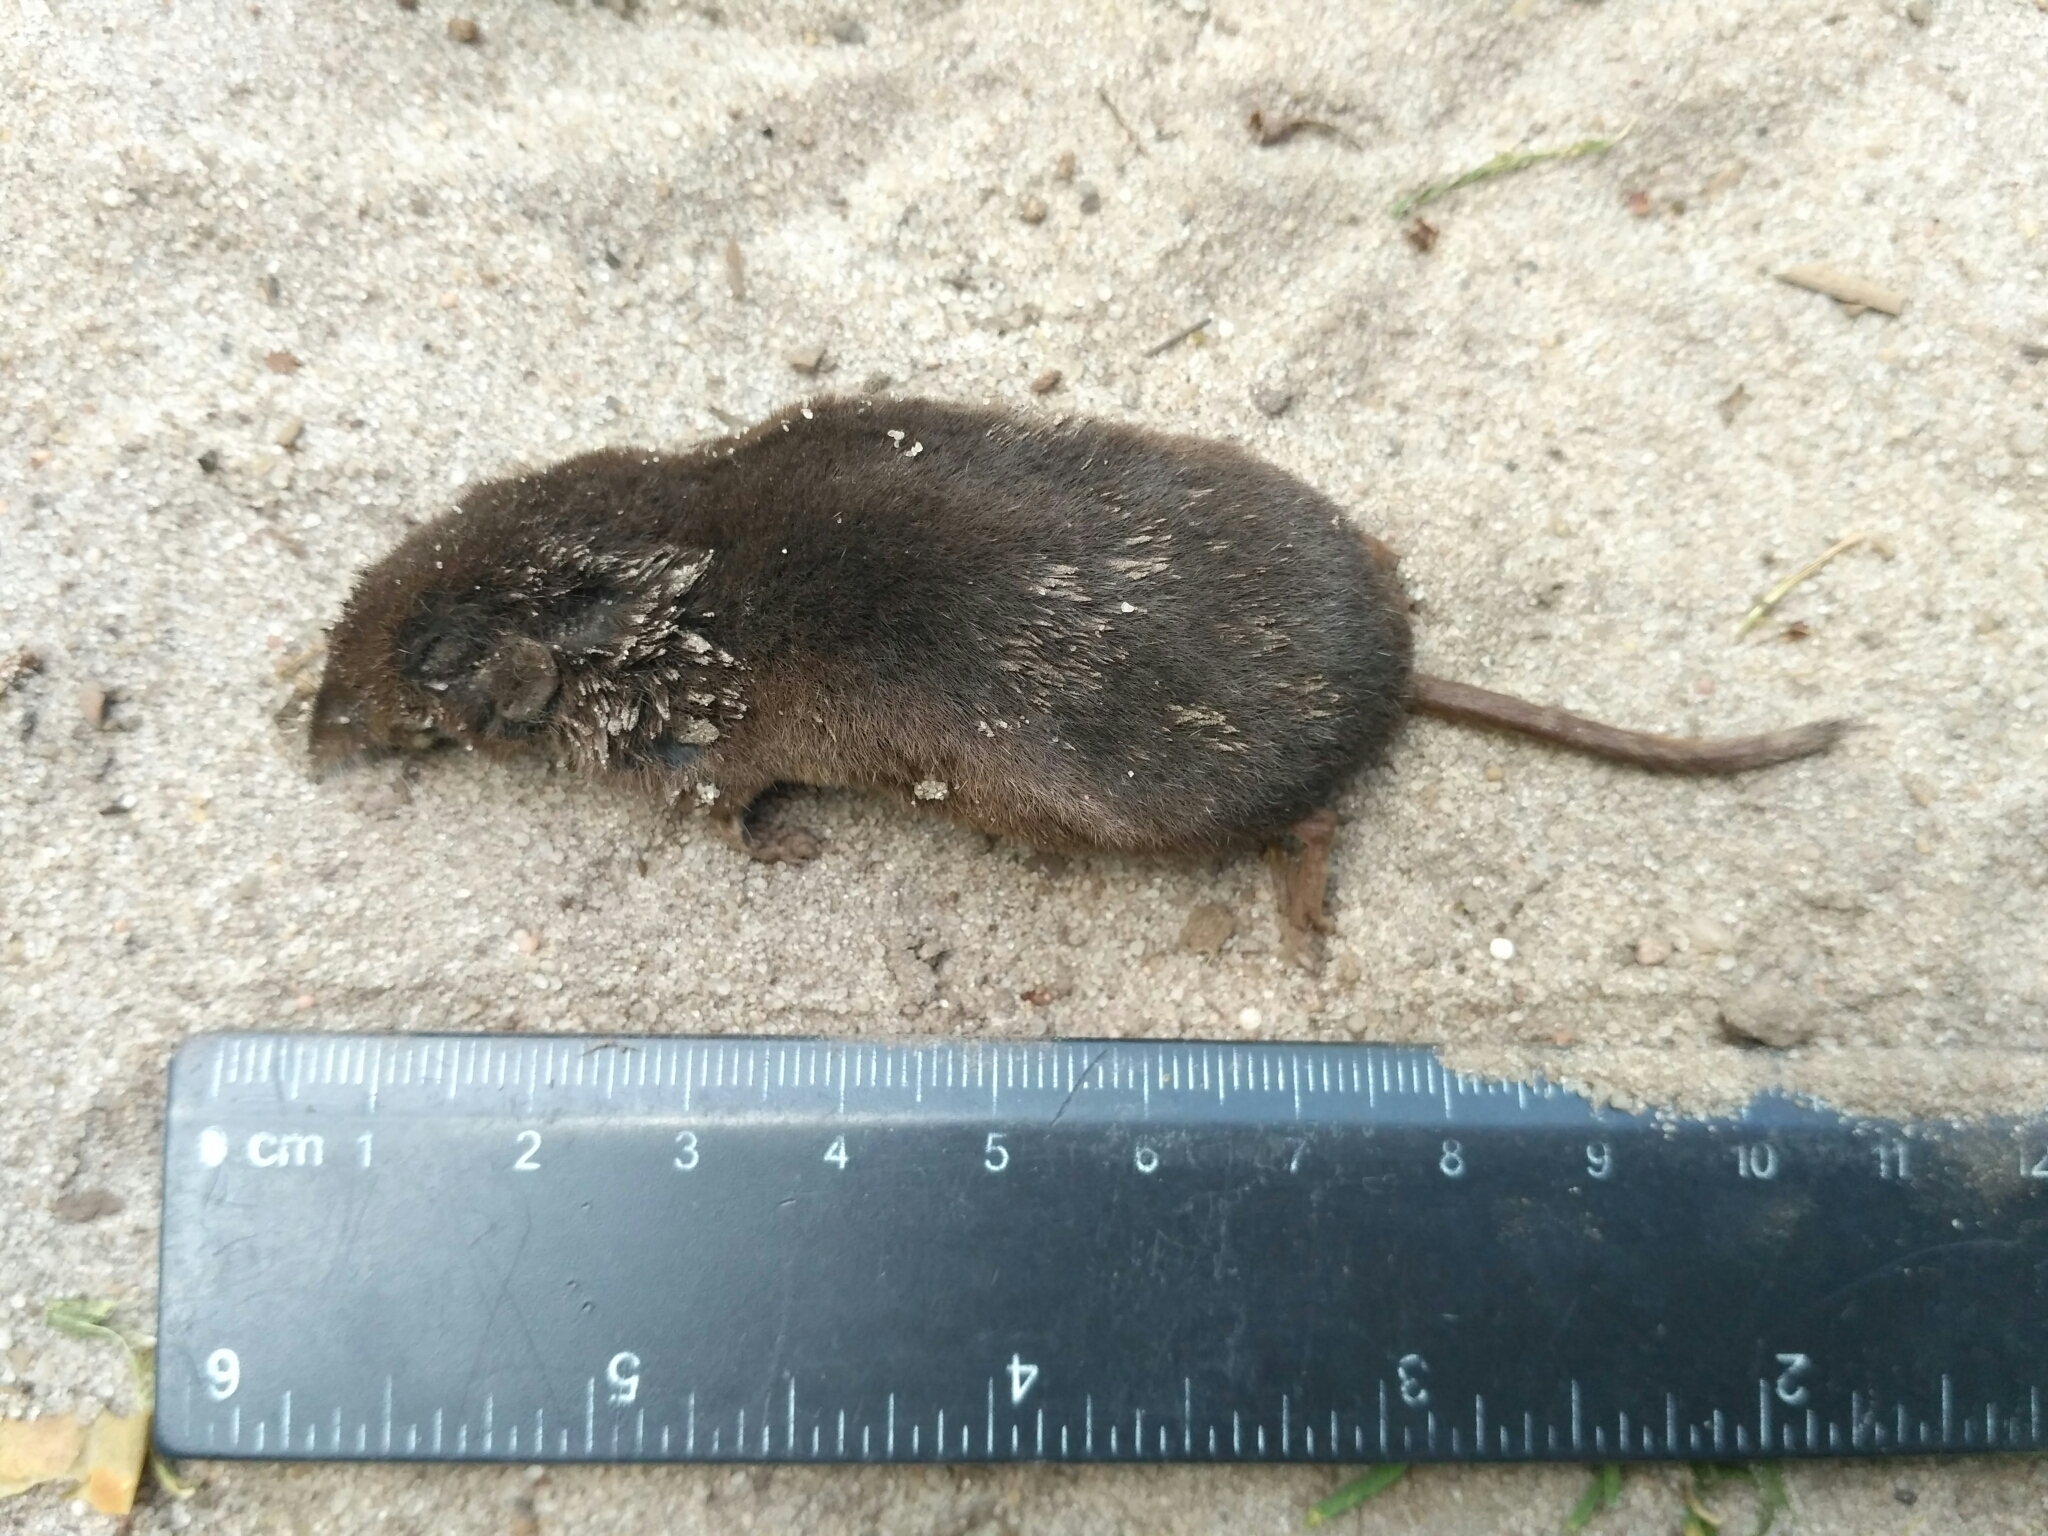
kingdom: Animalia
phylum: Chordata
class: Mammalia
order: Soricomorpha
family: Soricidae
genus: Sorex
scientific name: Sorex araneus
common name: Common shrew
